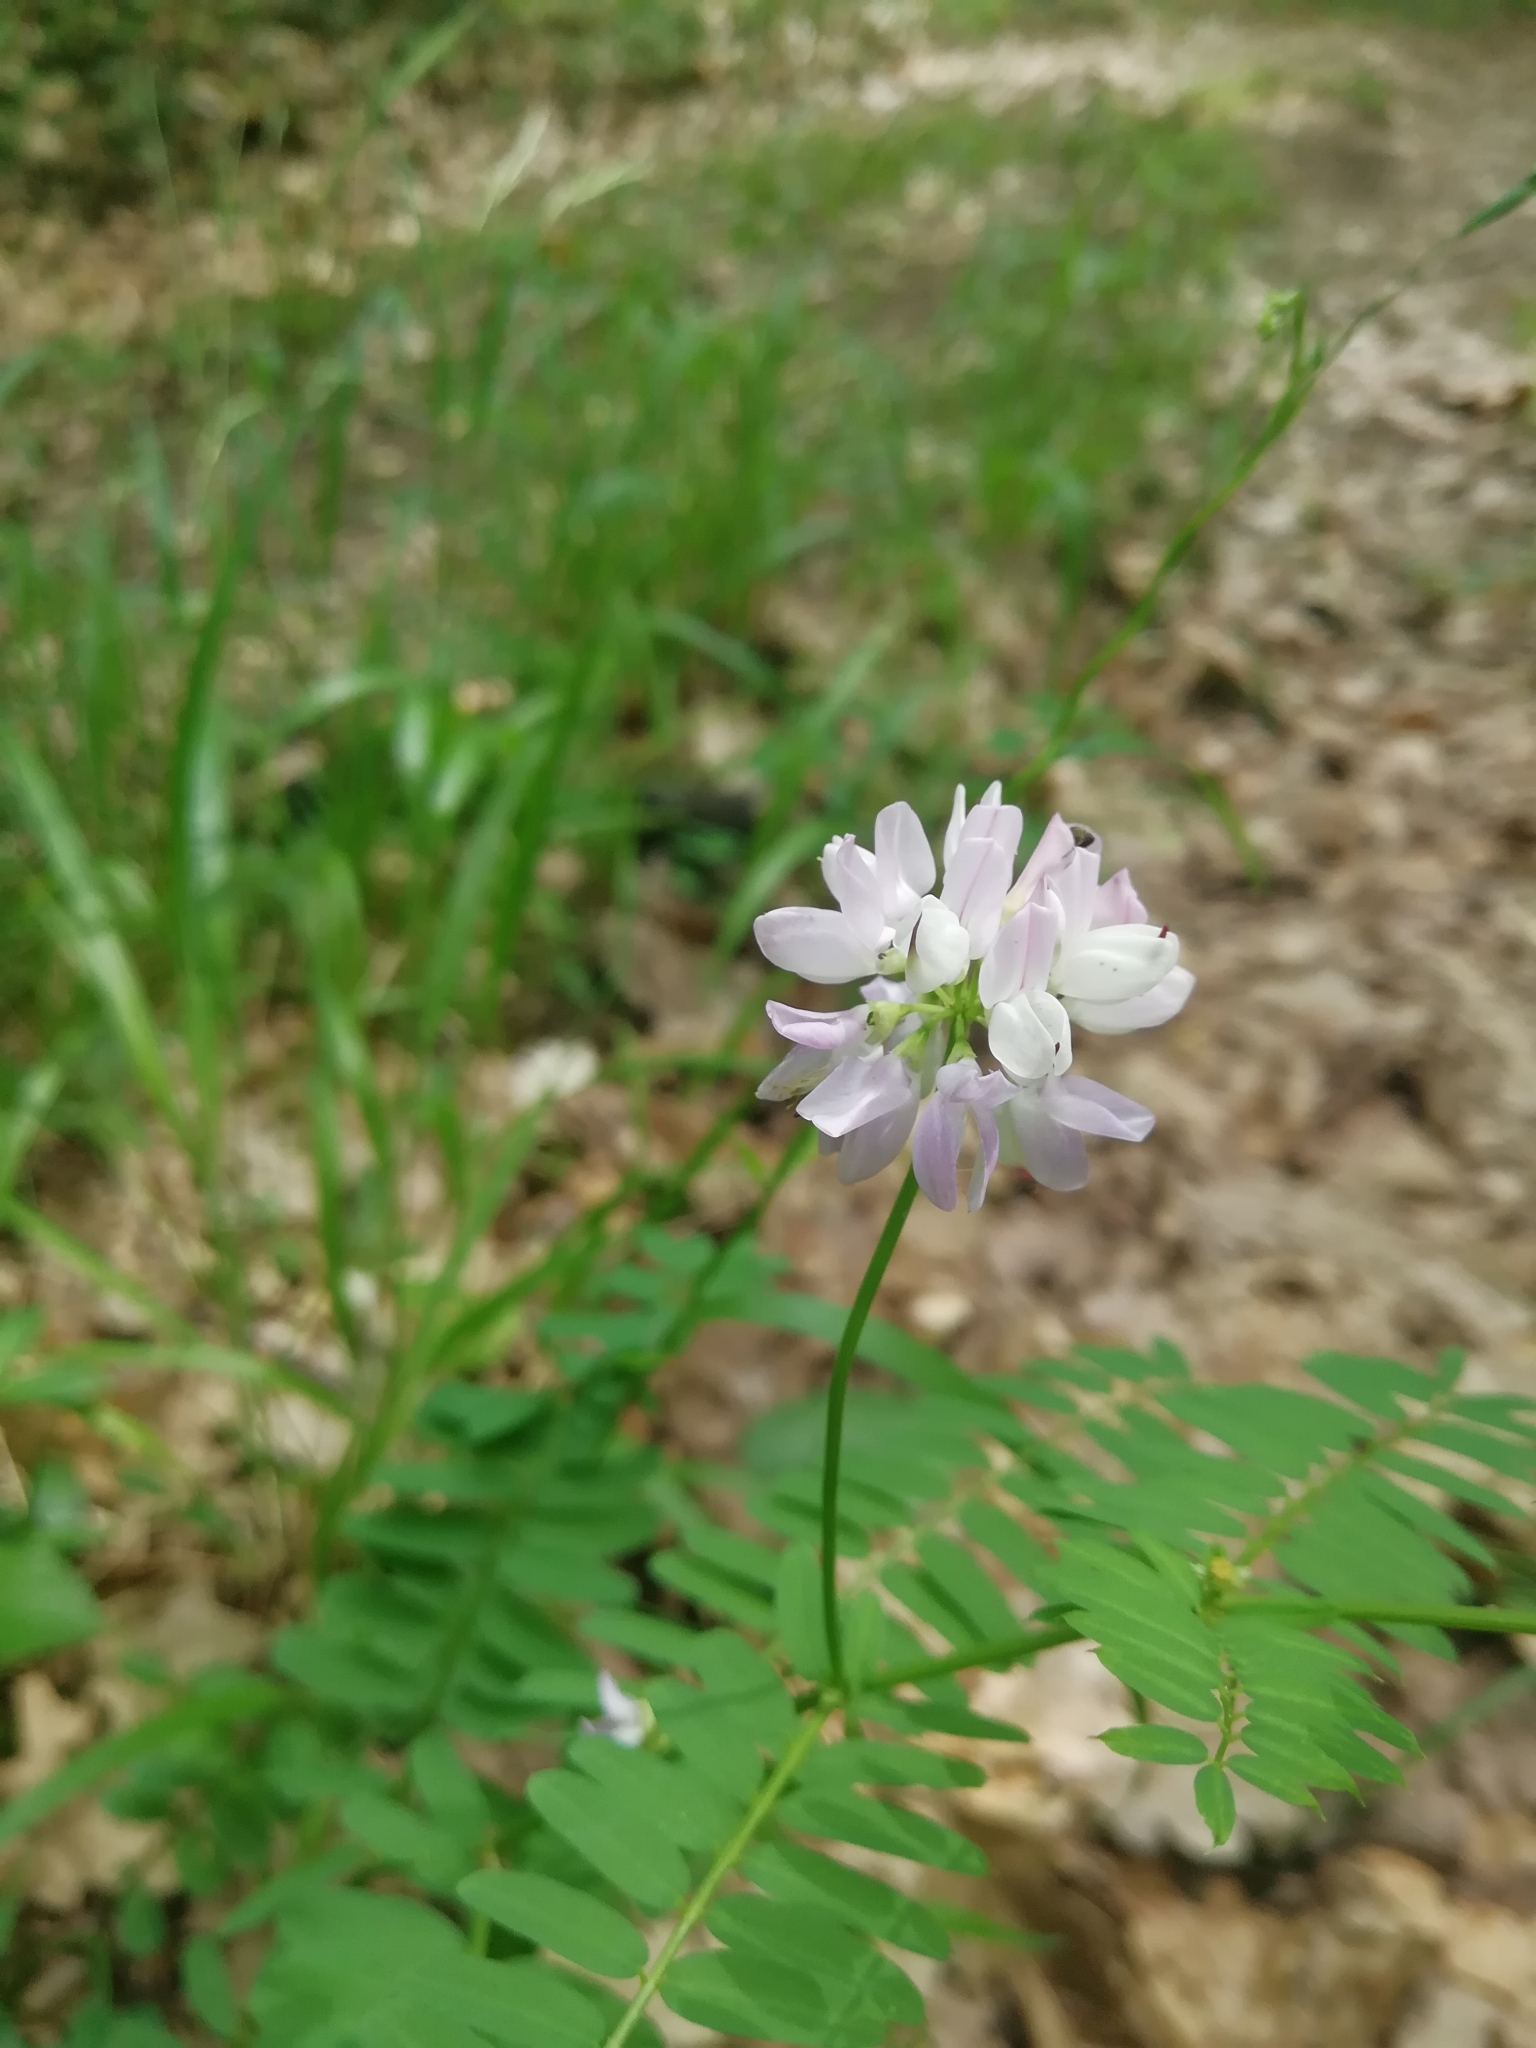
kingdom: Plantae
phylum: Tracheophyta
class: Magnoliopsida
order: Fabales
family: Fabaceae
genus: Coronilla
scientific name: Coronilla varia
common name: Crownvetch
